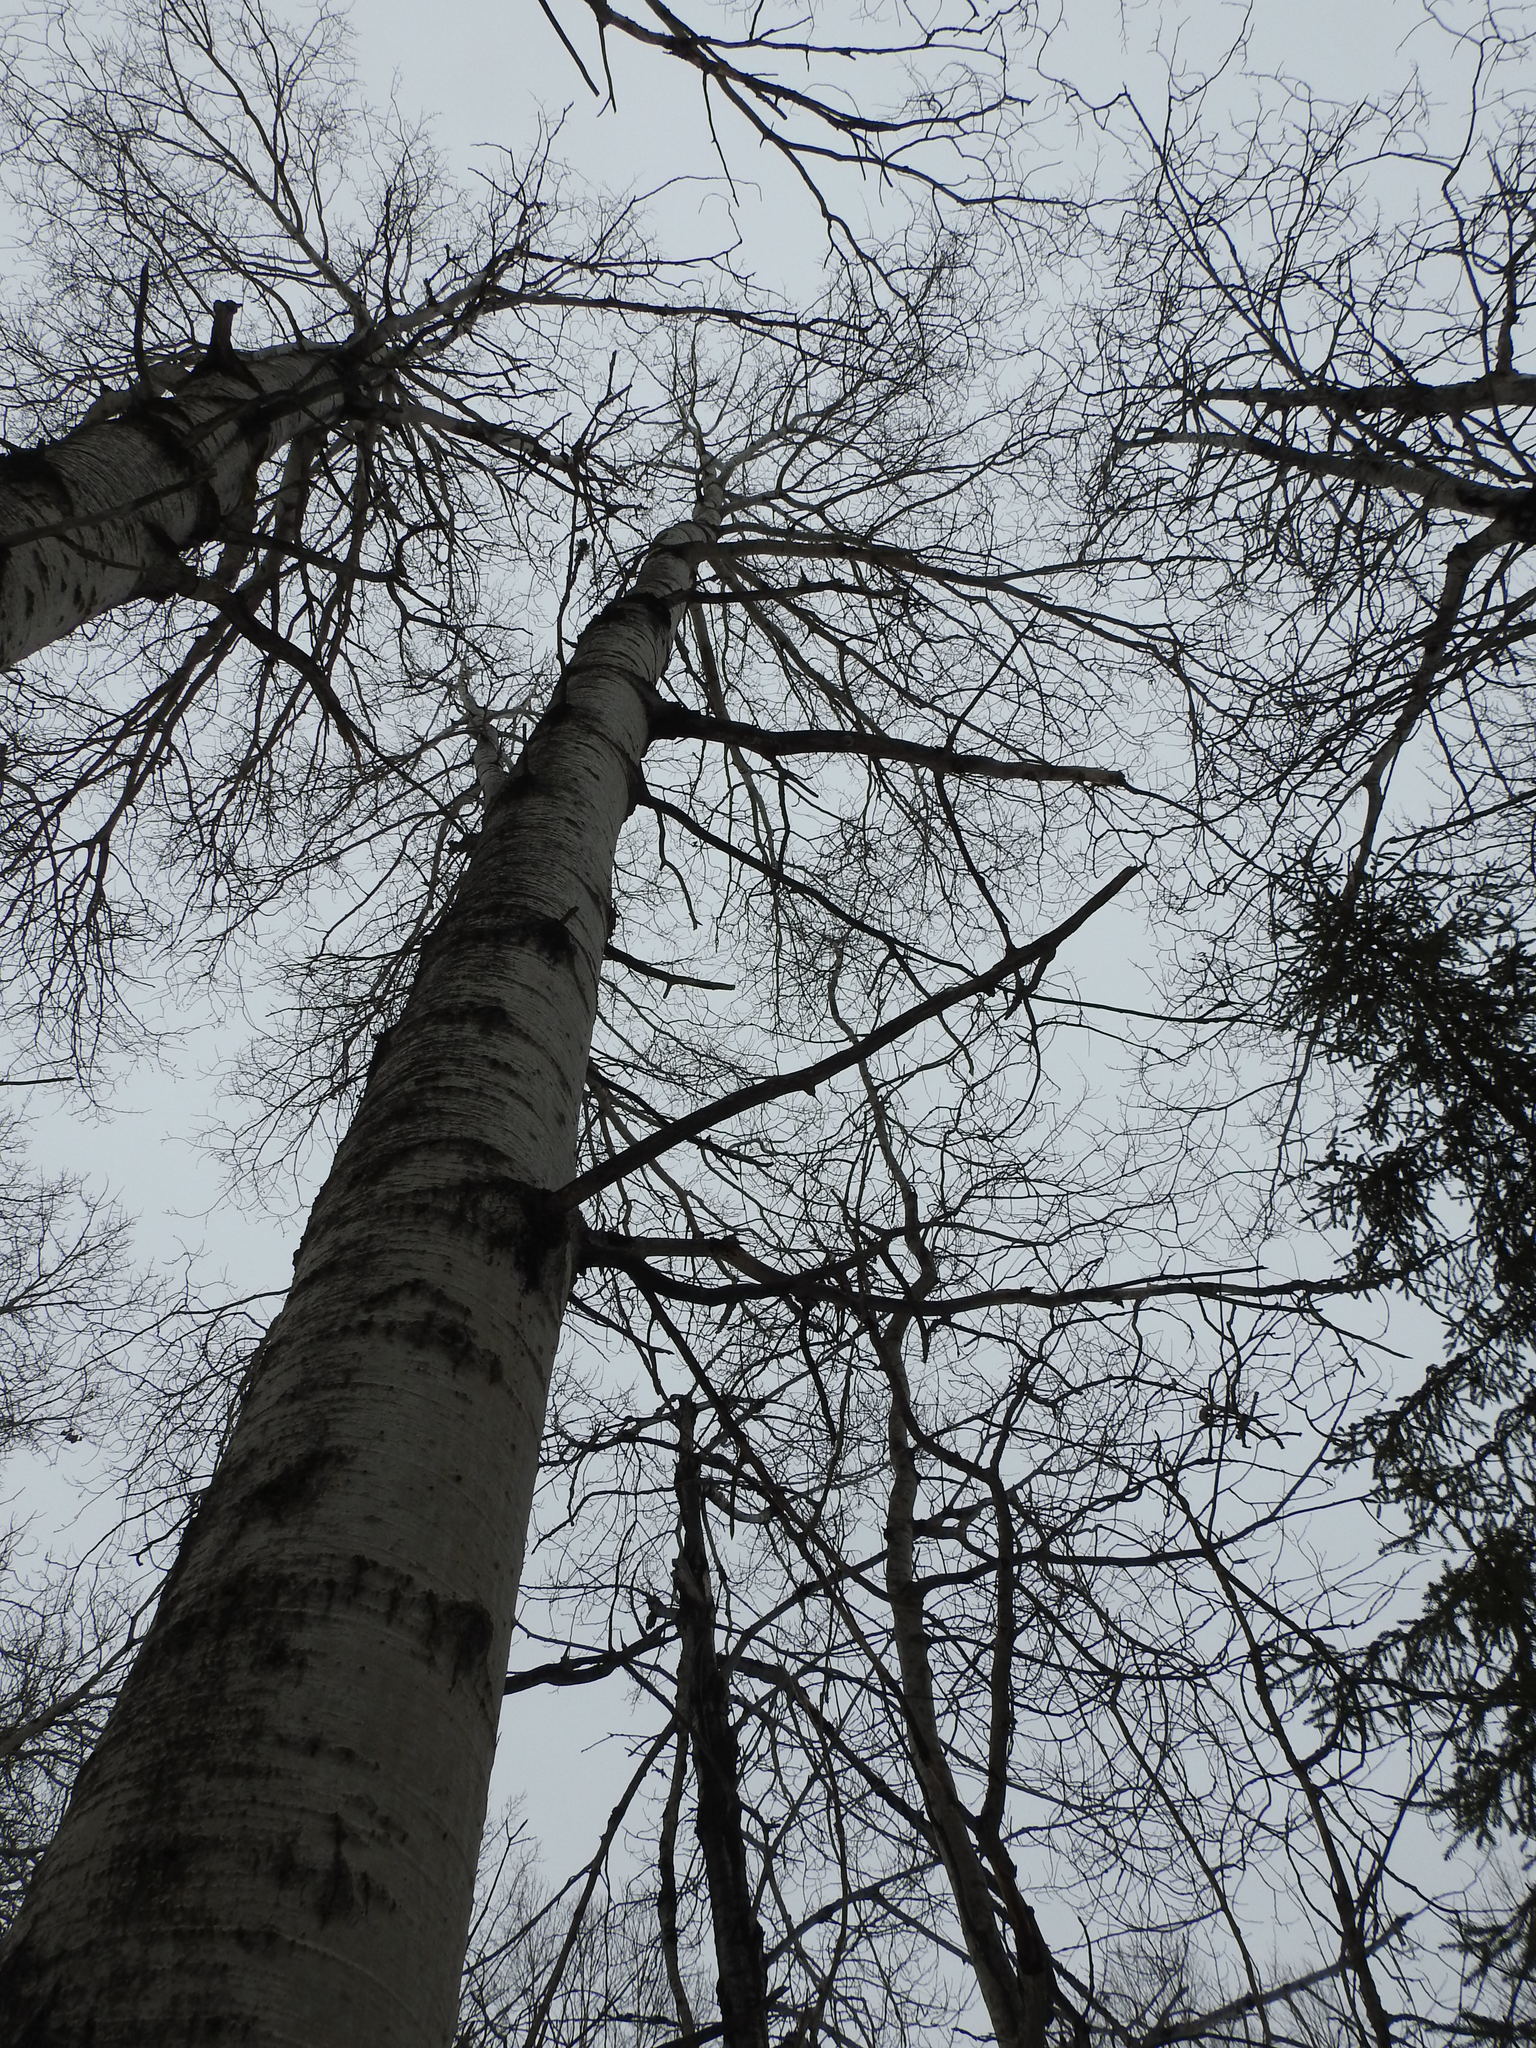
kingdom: Plantae
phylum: Tracheophyta
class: Magnoliopsida
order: Malpighiales
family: Salicaceae
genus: Populus
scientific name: Populus tremuloides
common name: Quaking aspen
